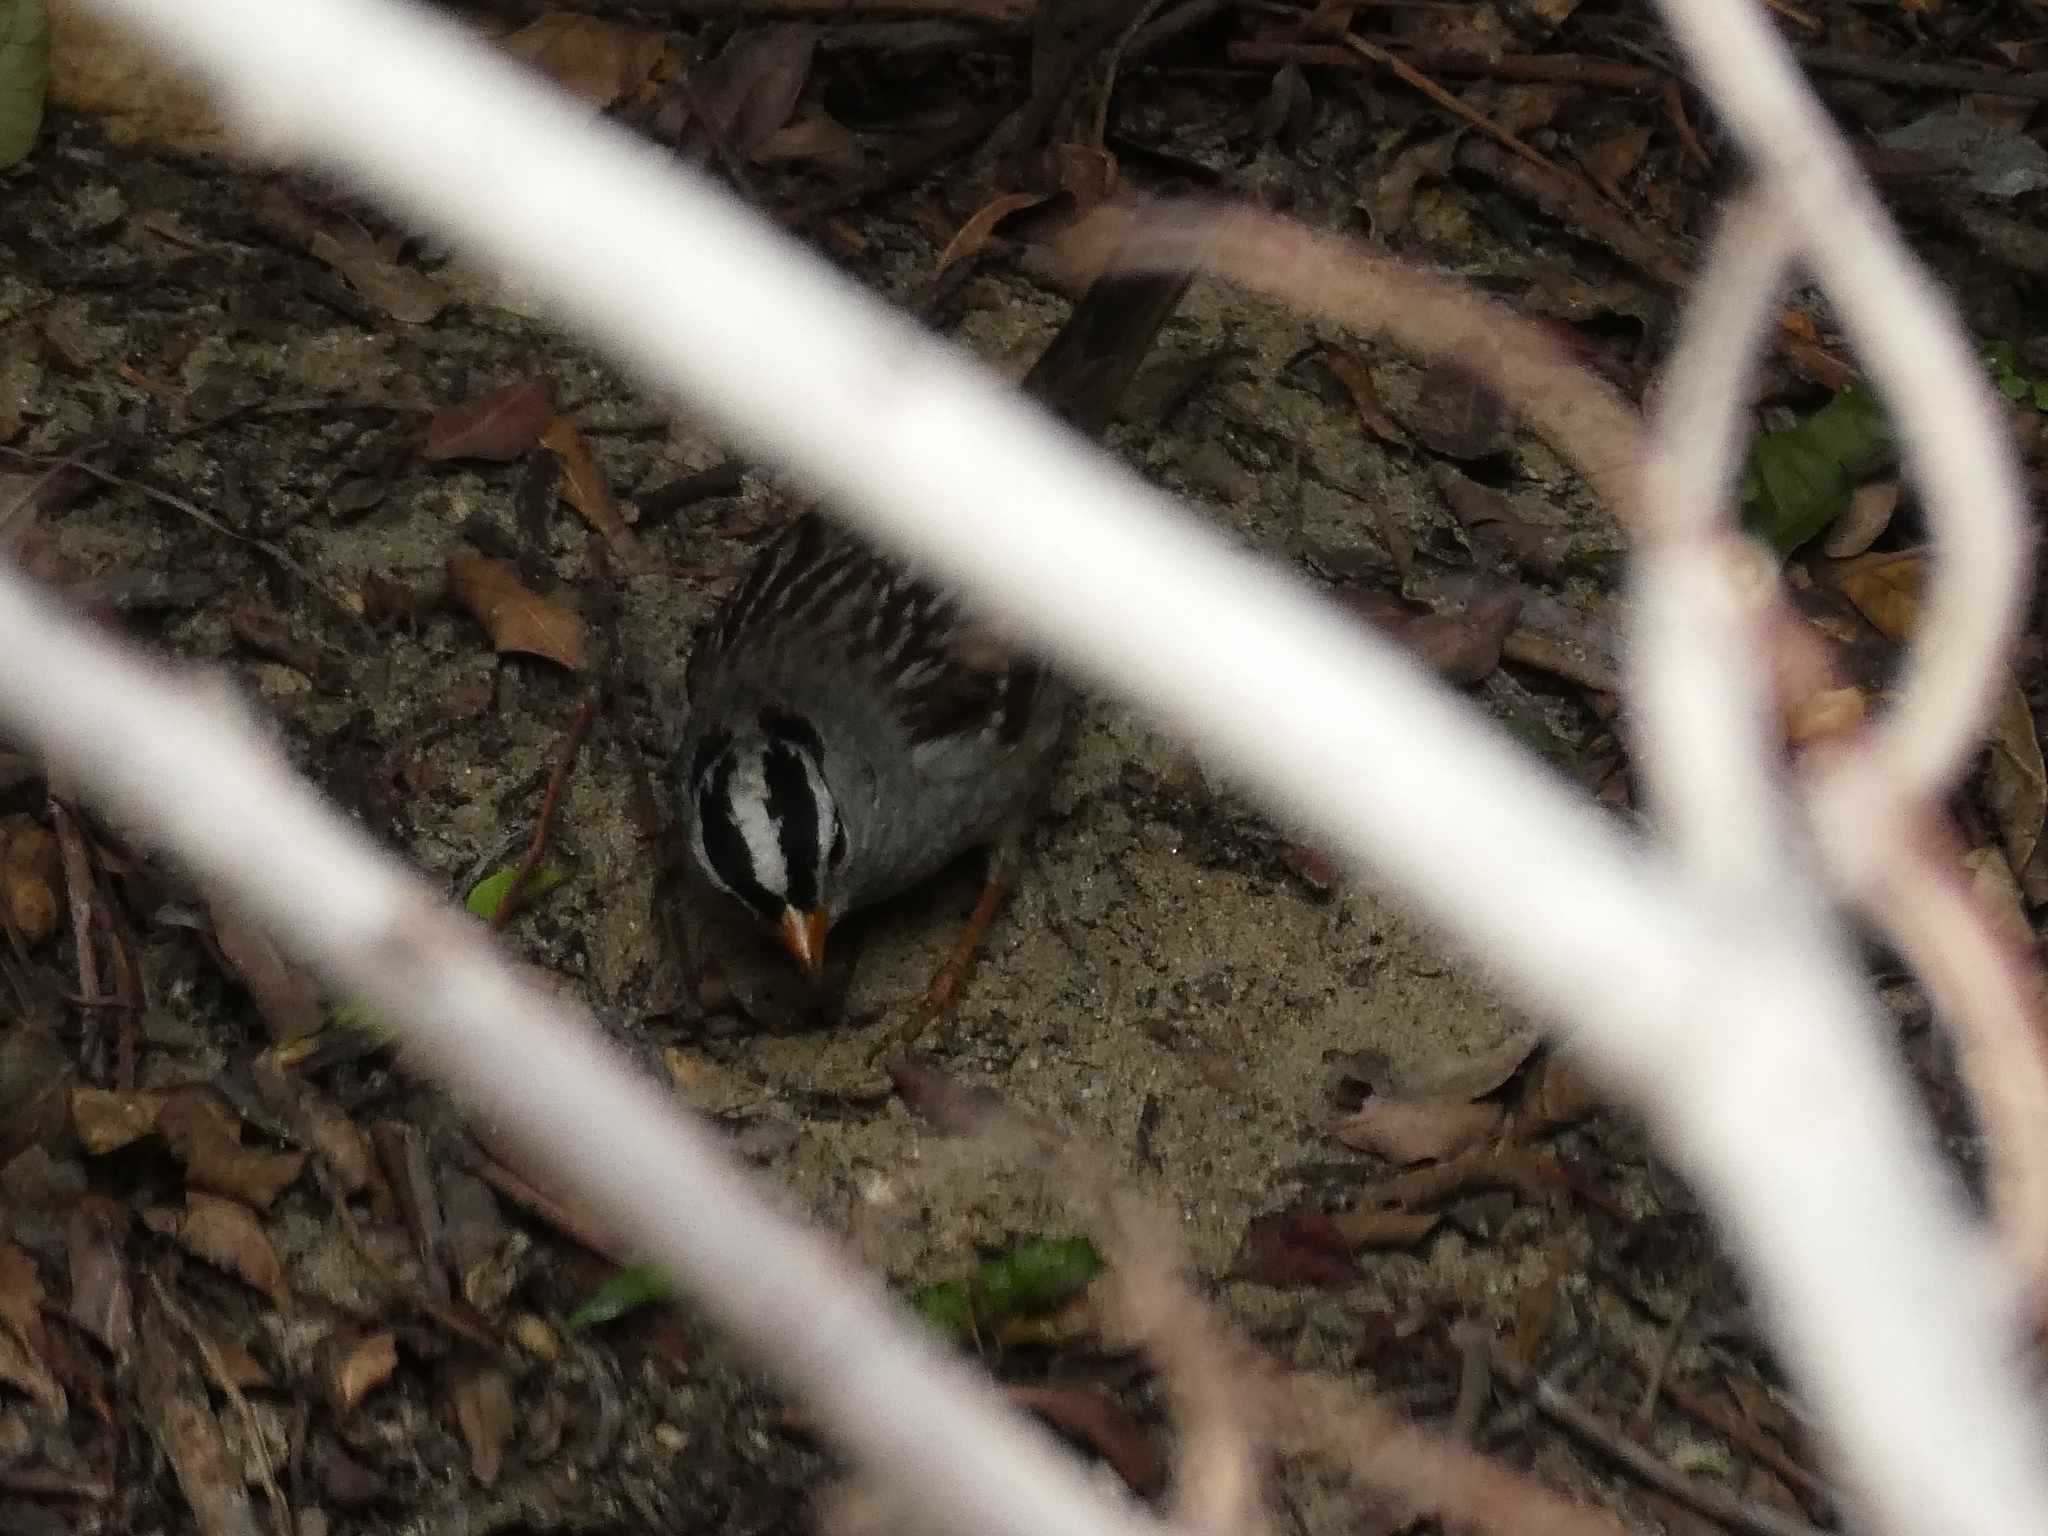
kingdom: Animalia
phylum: Chordata
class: Aves
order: Passeriformes
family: Passerellidae
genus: Zonotrichia
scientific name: Zonotrichia leucophrys
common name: White-crowned sparrow
